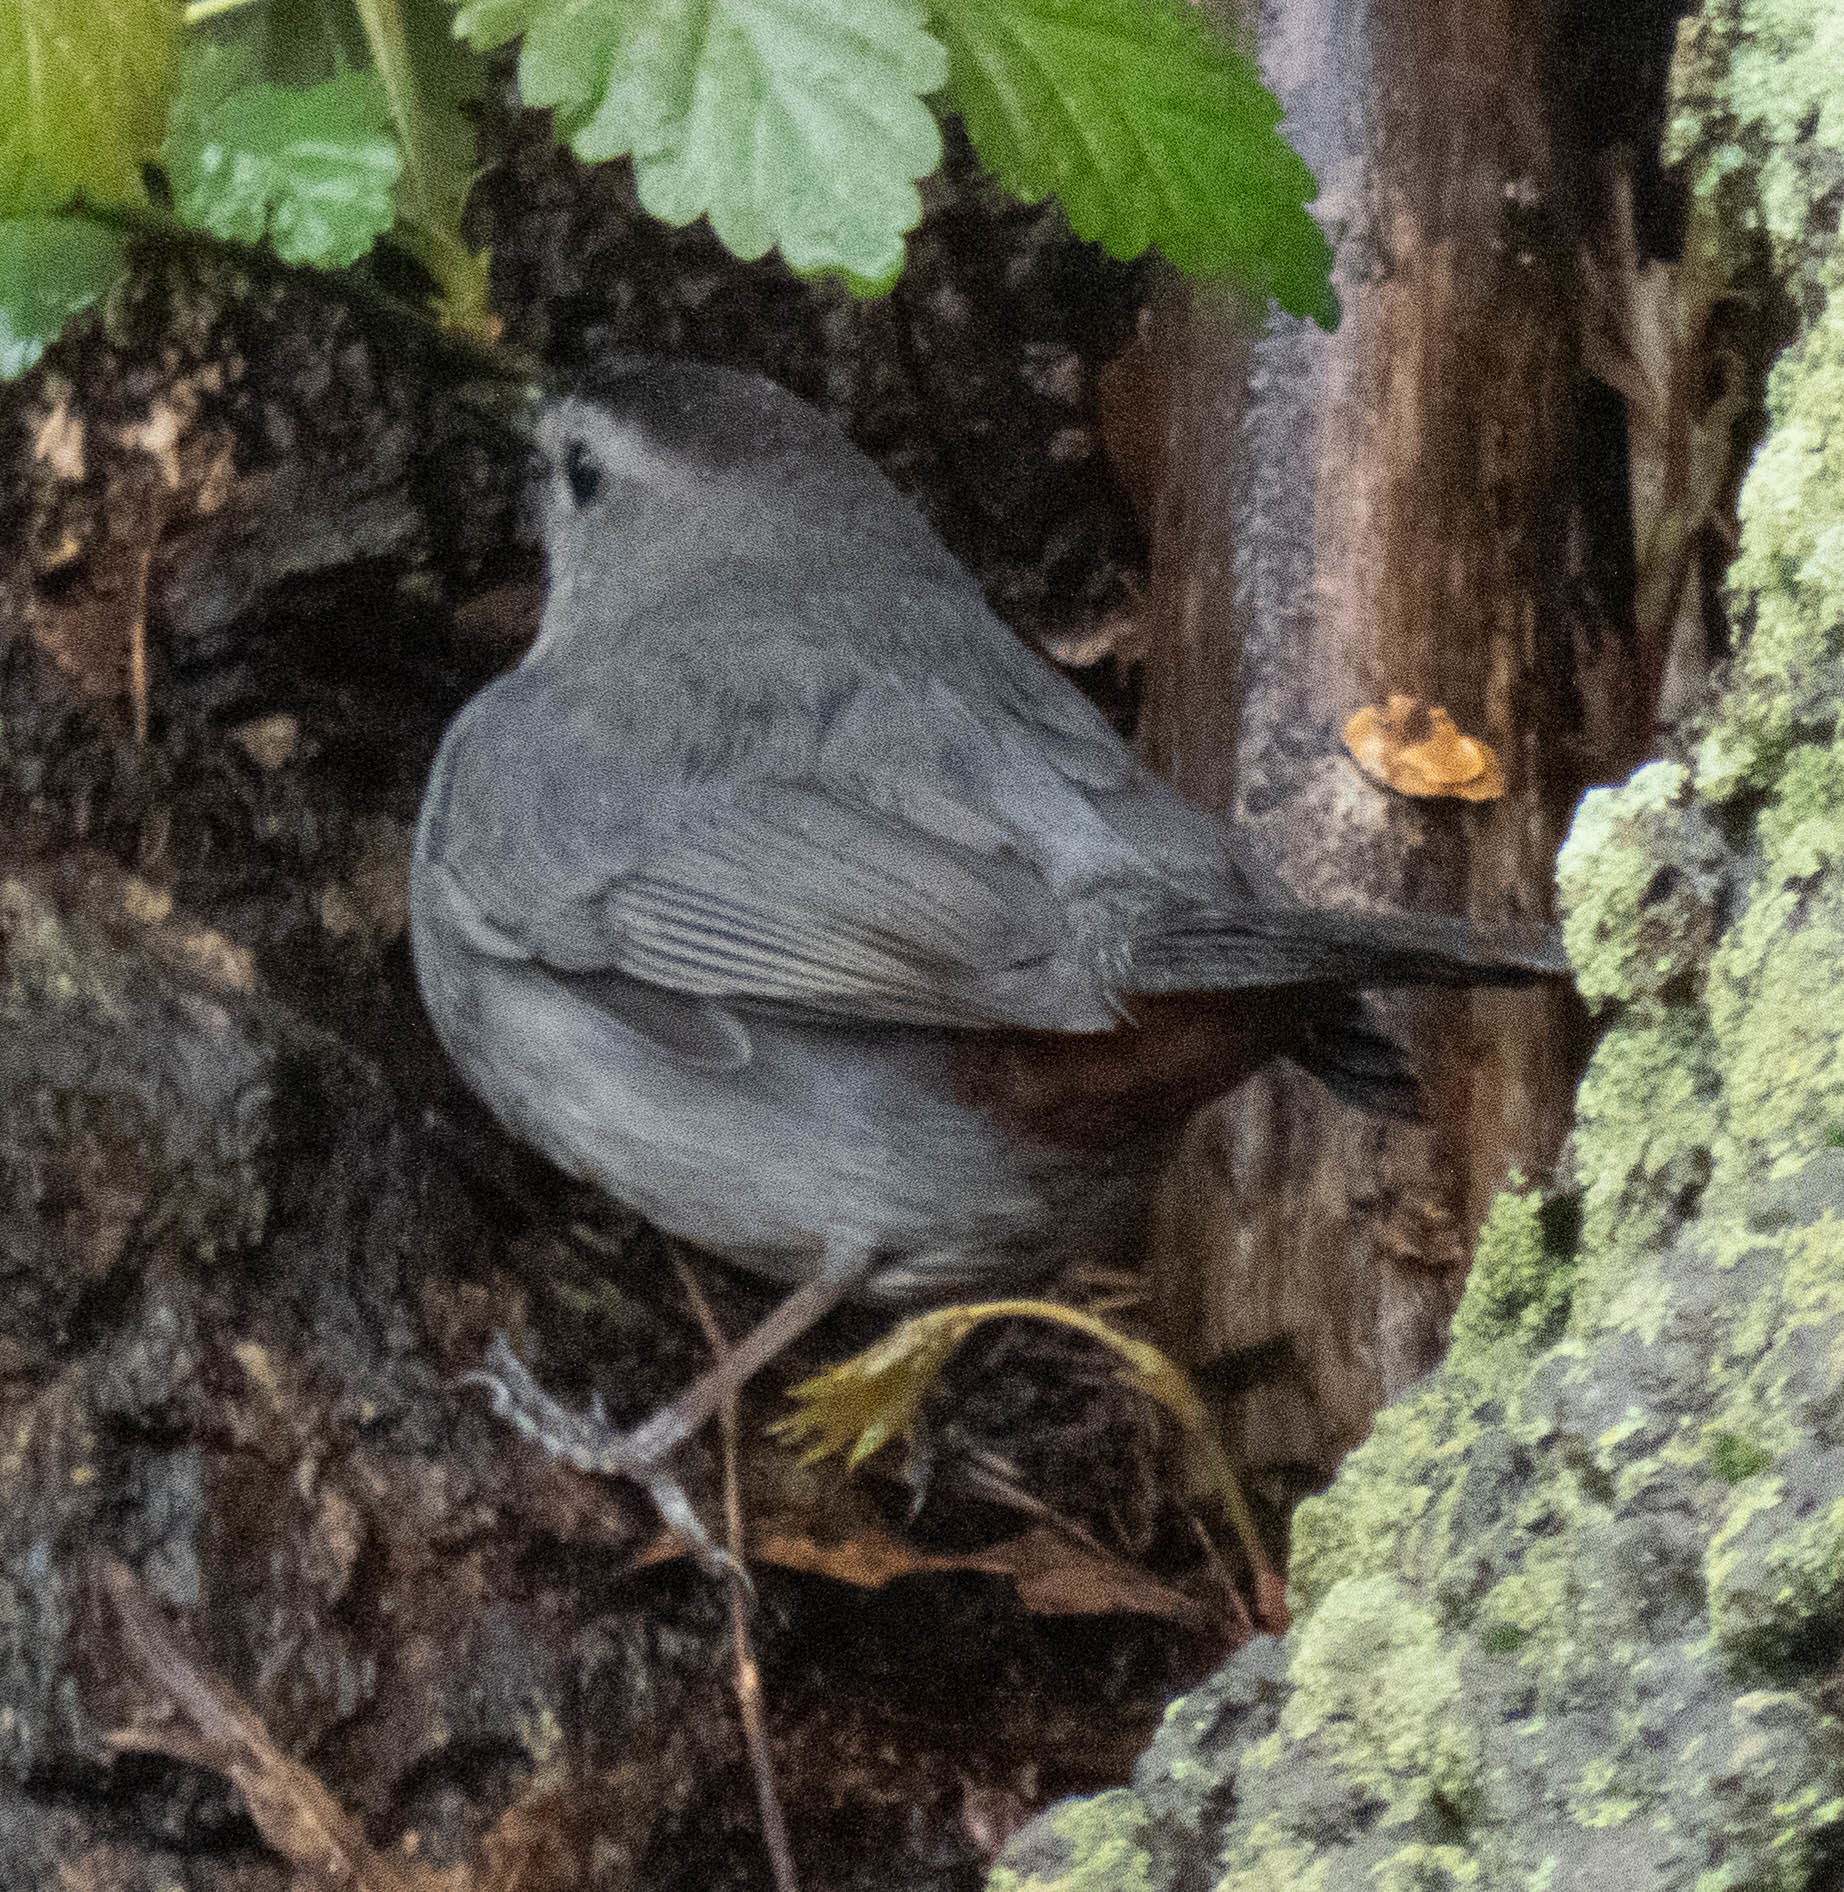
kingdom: Animalia
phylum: Chordata
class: Aves
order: Passeriformes
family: Mimidae
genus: Dumetella
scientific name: Dumetella carolinensis
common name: Gray catbird
